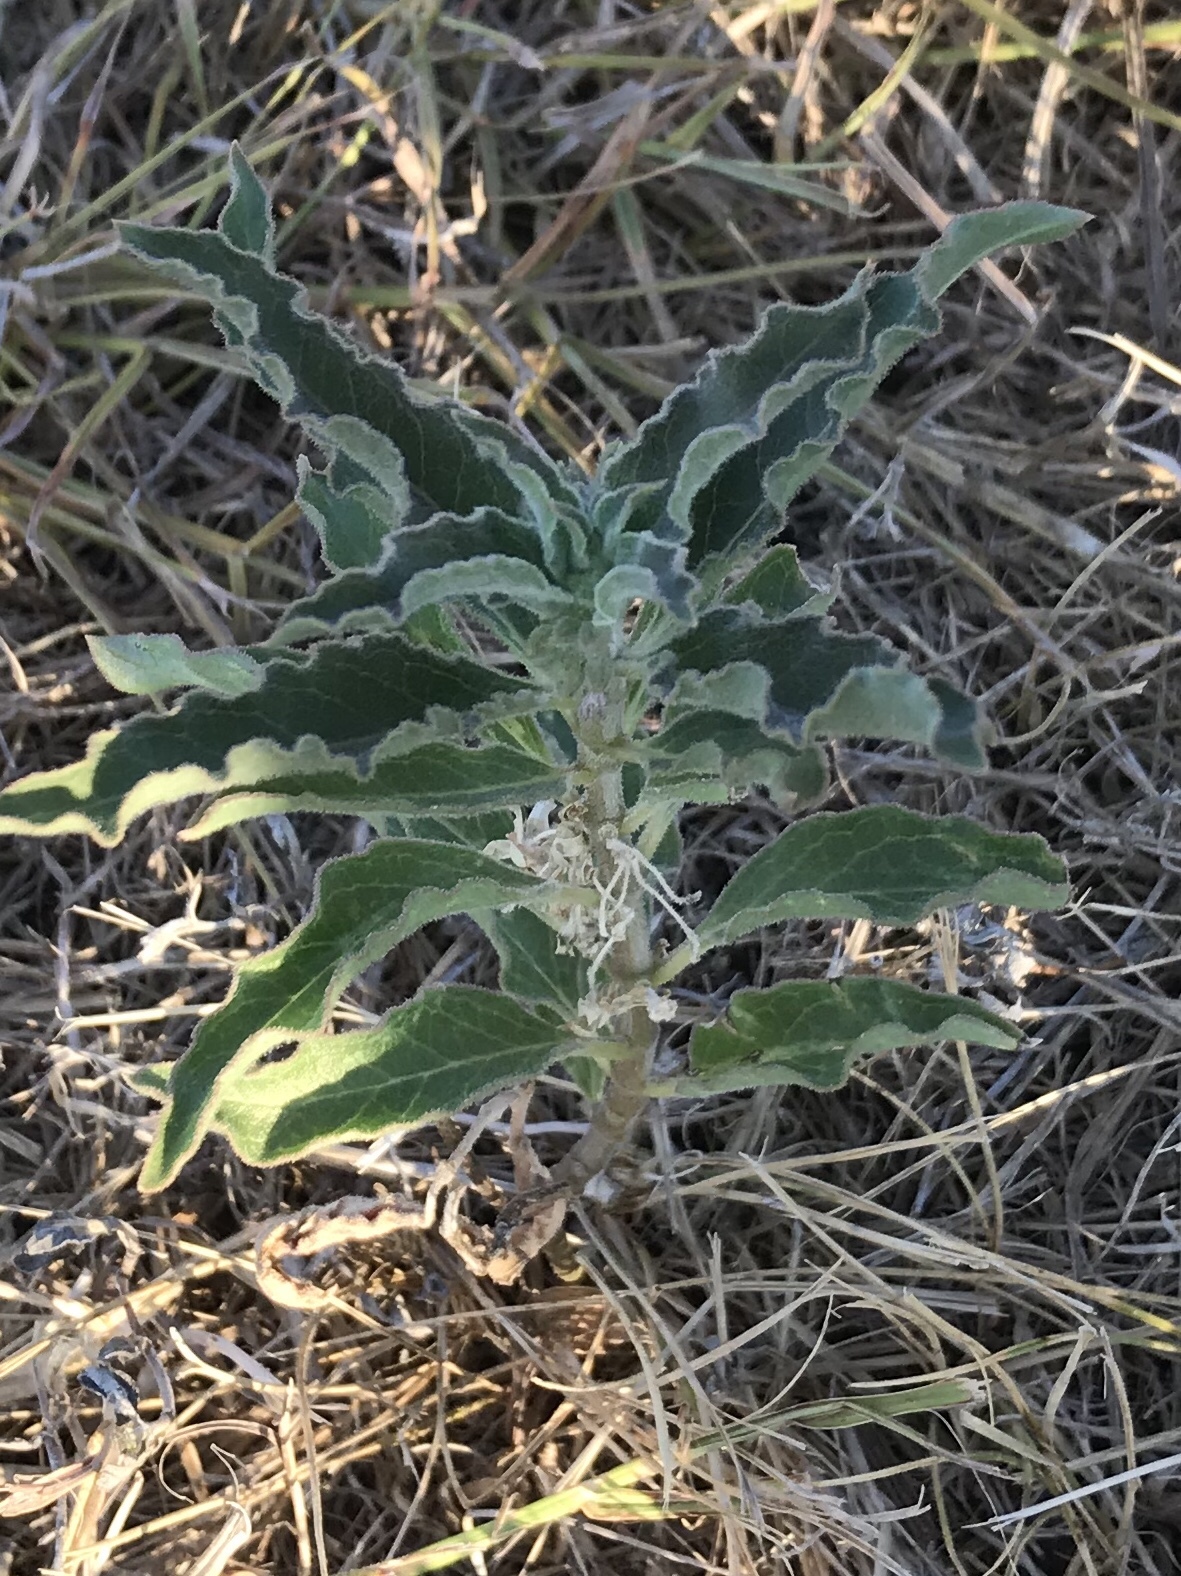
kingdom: Plantae
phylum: Tracheophyta
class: Magnoliopsida
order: Gentianales
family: Apocynaceae
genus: Asclepias
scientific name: Asclepias oenotheroides
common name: Zizotes milkweed
